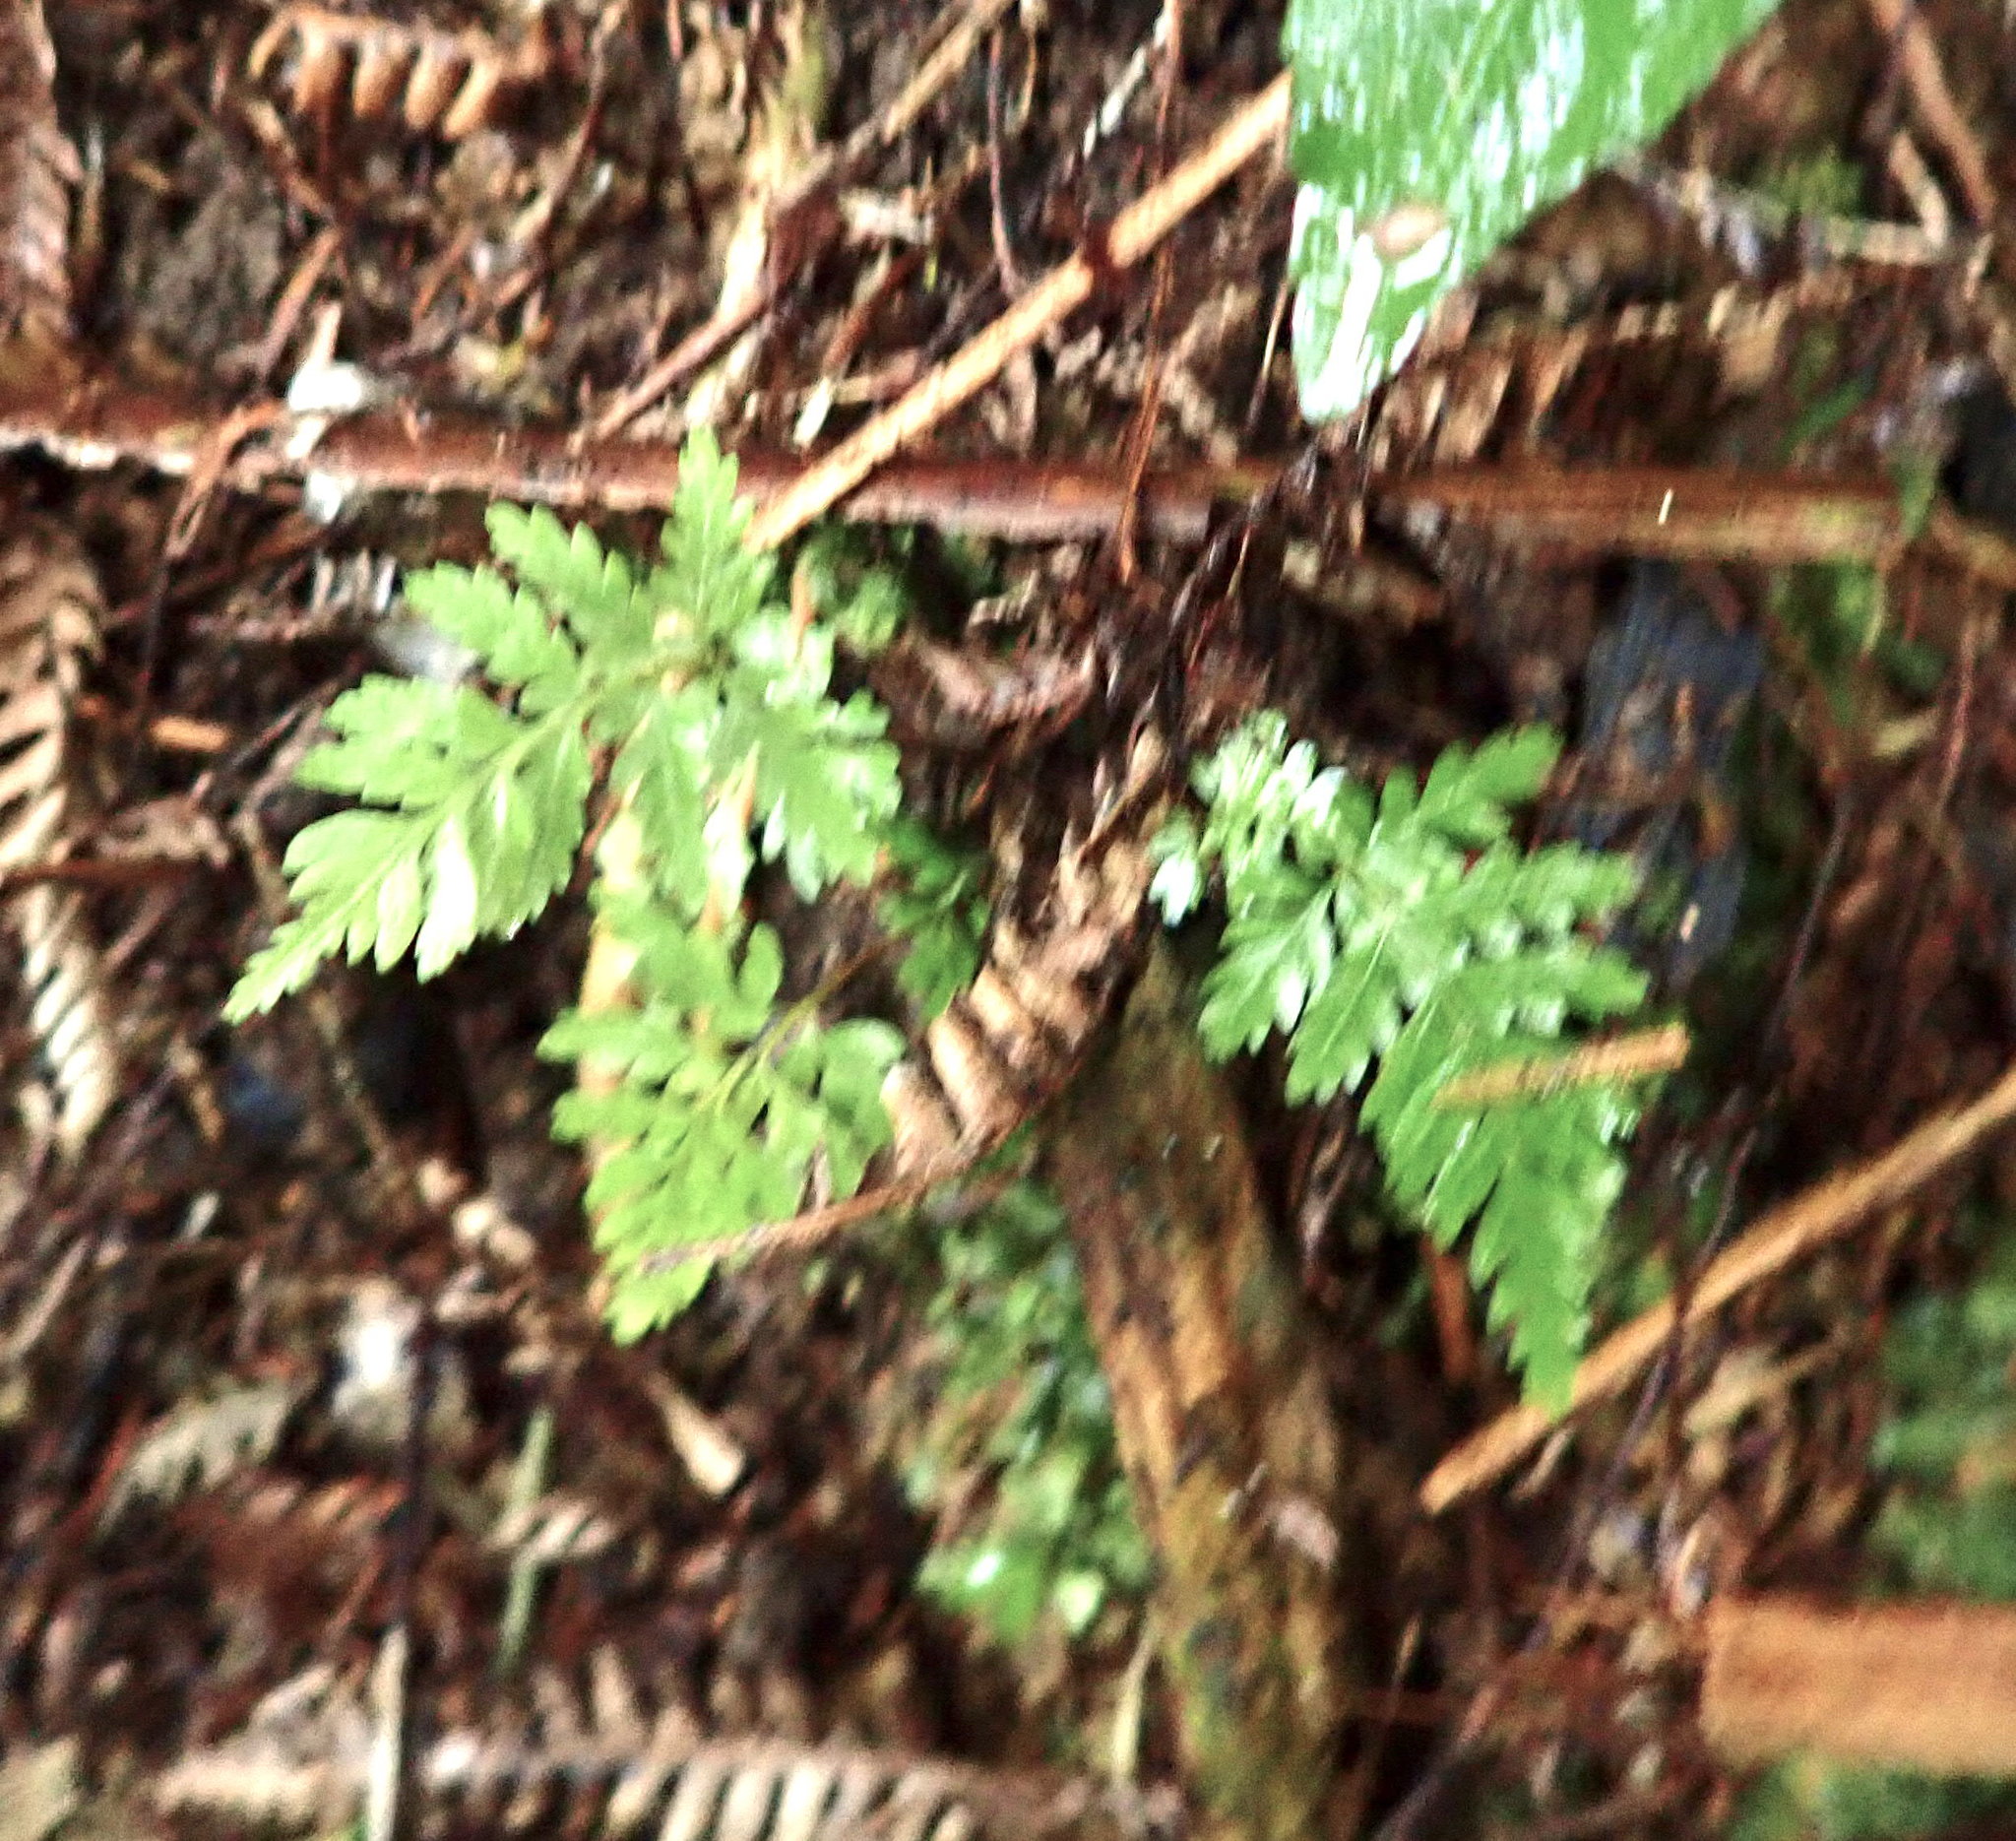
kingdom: Plantae
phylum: Tracheophyta
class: Polypodiopsida
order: Cyatheales
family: Cyatheaceae
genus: Alsophila
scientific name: Alsophila dealbata
